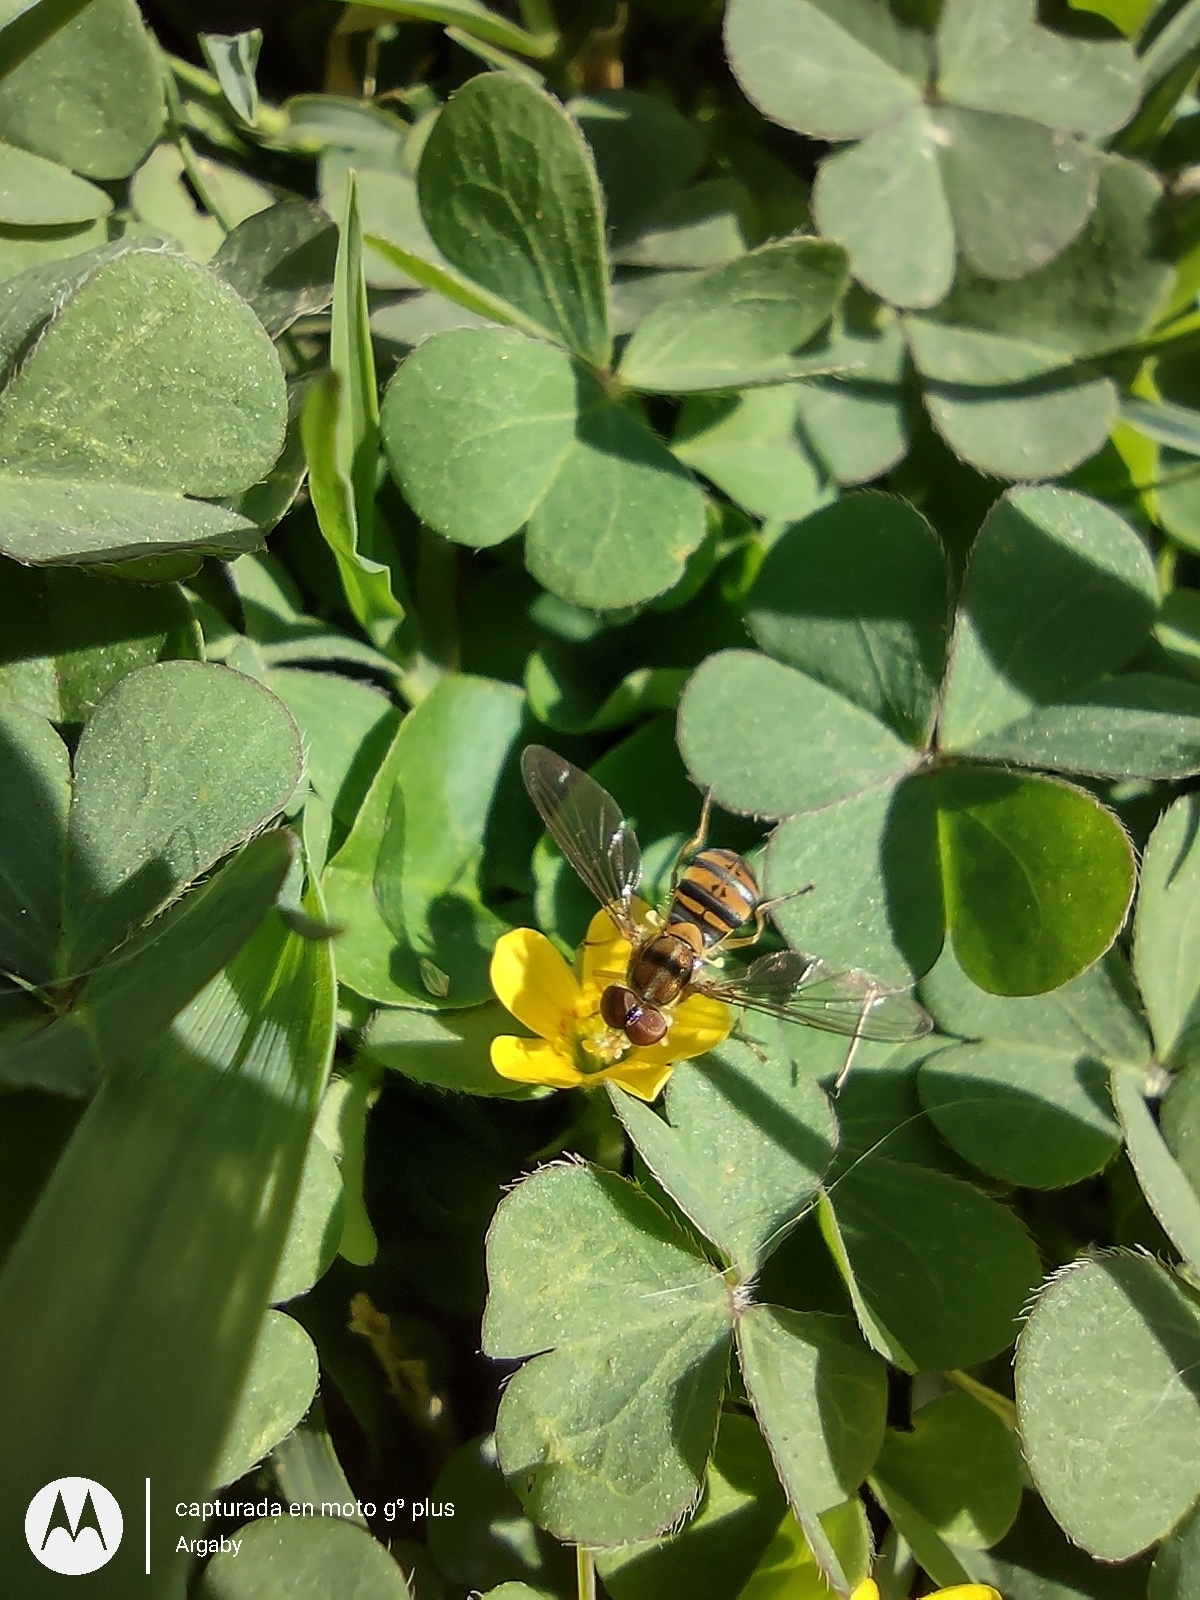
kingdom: Animalia
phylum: Arthropoda
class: Insecta
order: Diptera
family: Syrphidae
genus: Toxomerus
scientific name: Toxomerus
